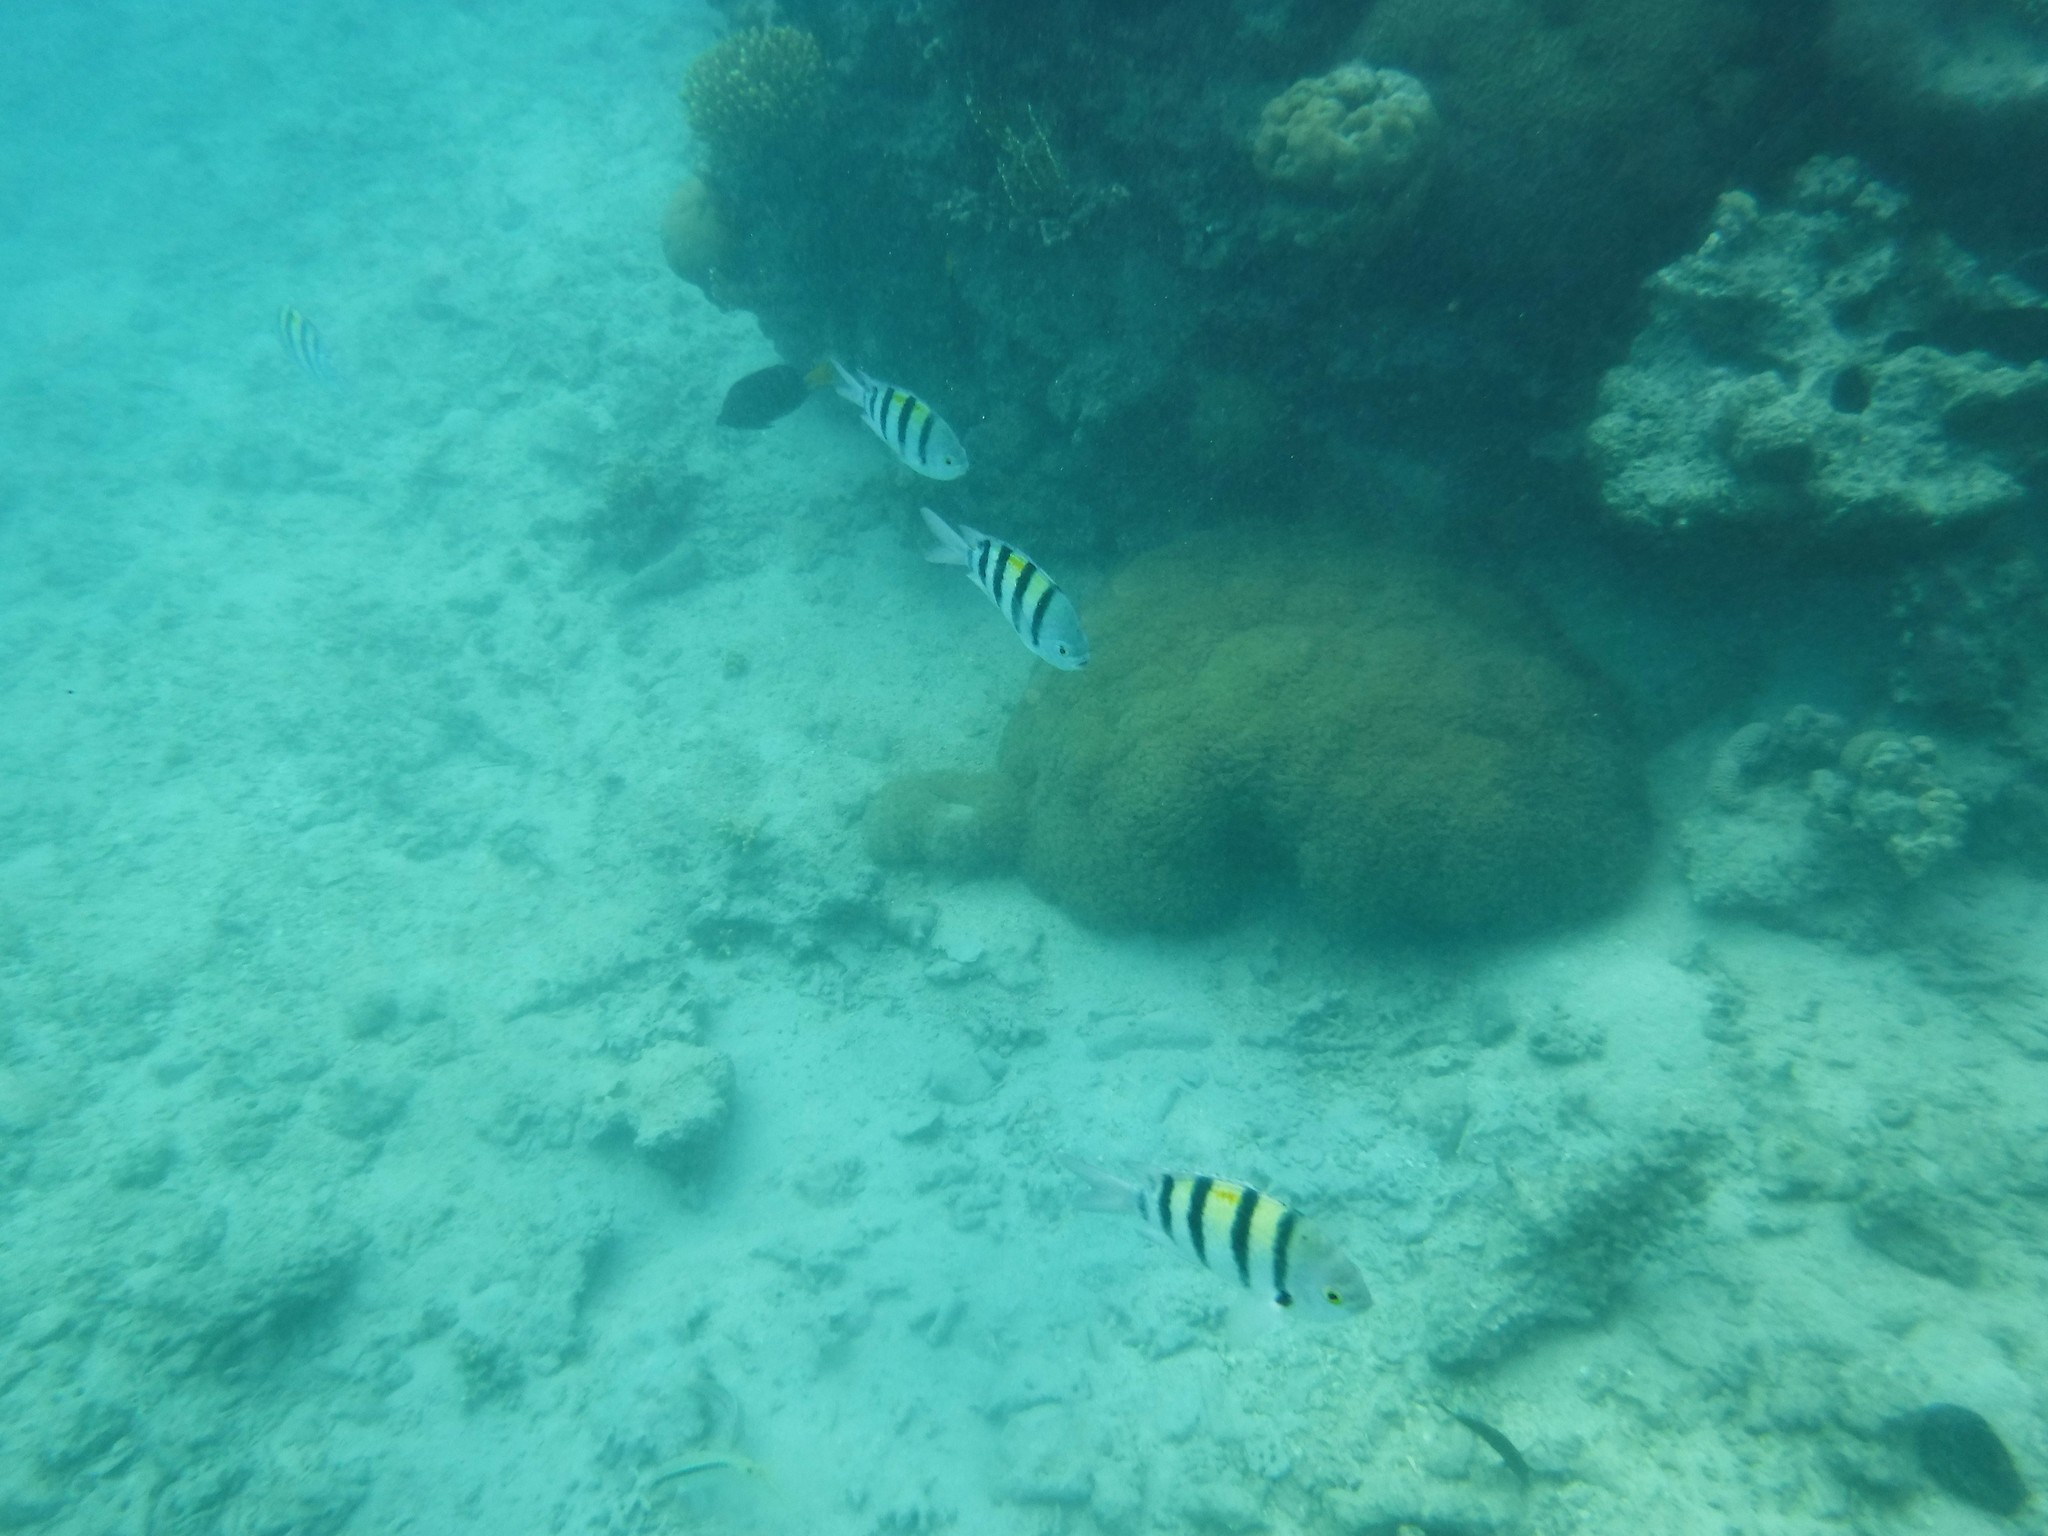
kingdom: Animalia
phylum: Chordata
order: Perciformes
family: Pomacentridae
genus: Abudefduf
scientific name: Abudefduf vaigiensis
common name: Indo-pacific sergeant
